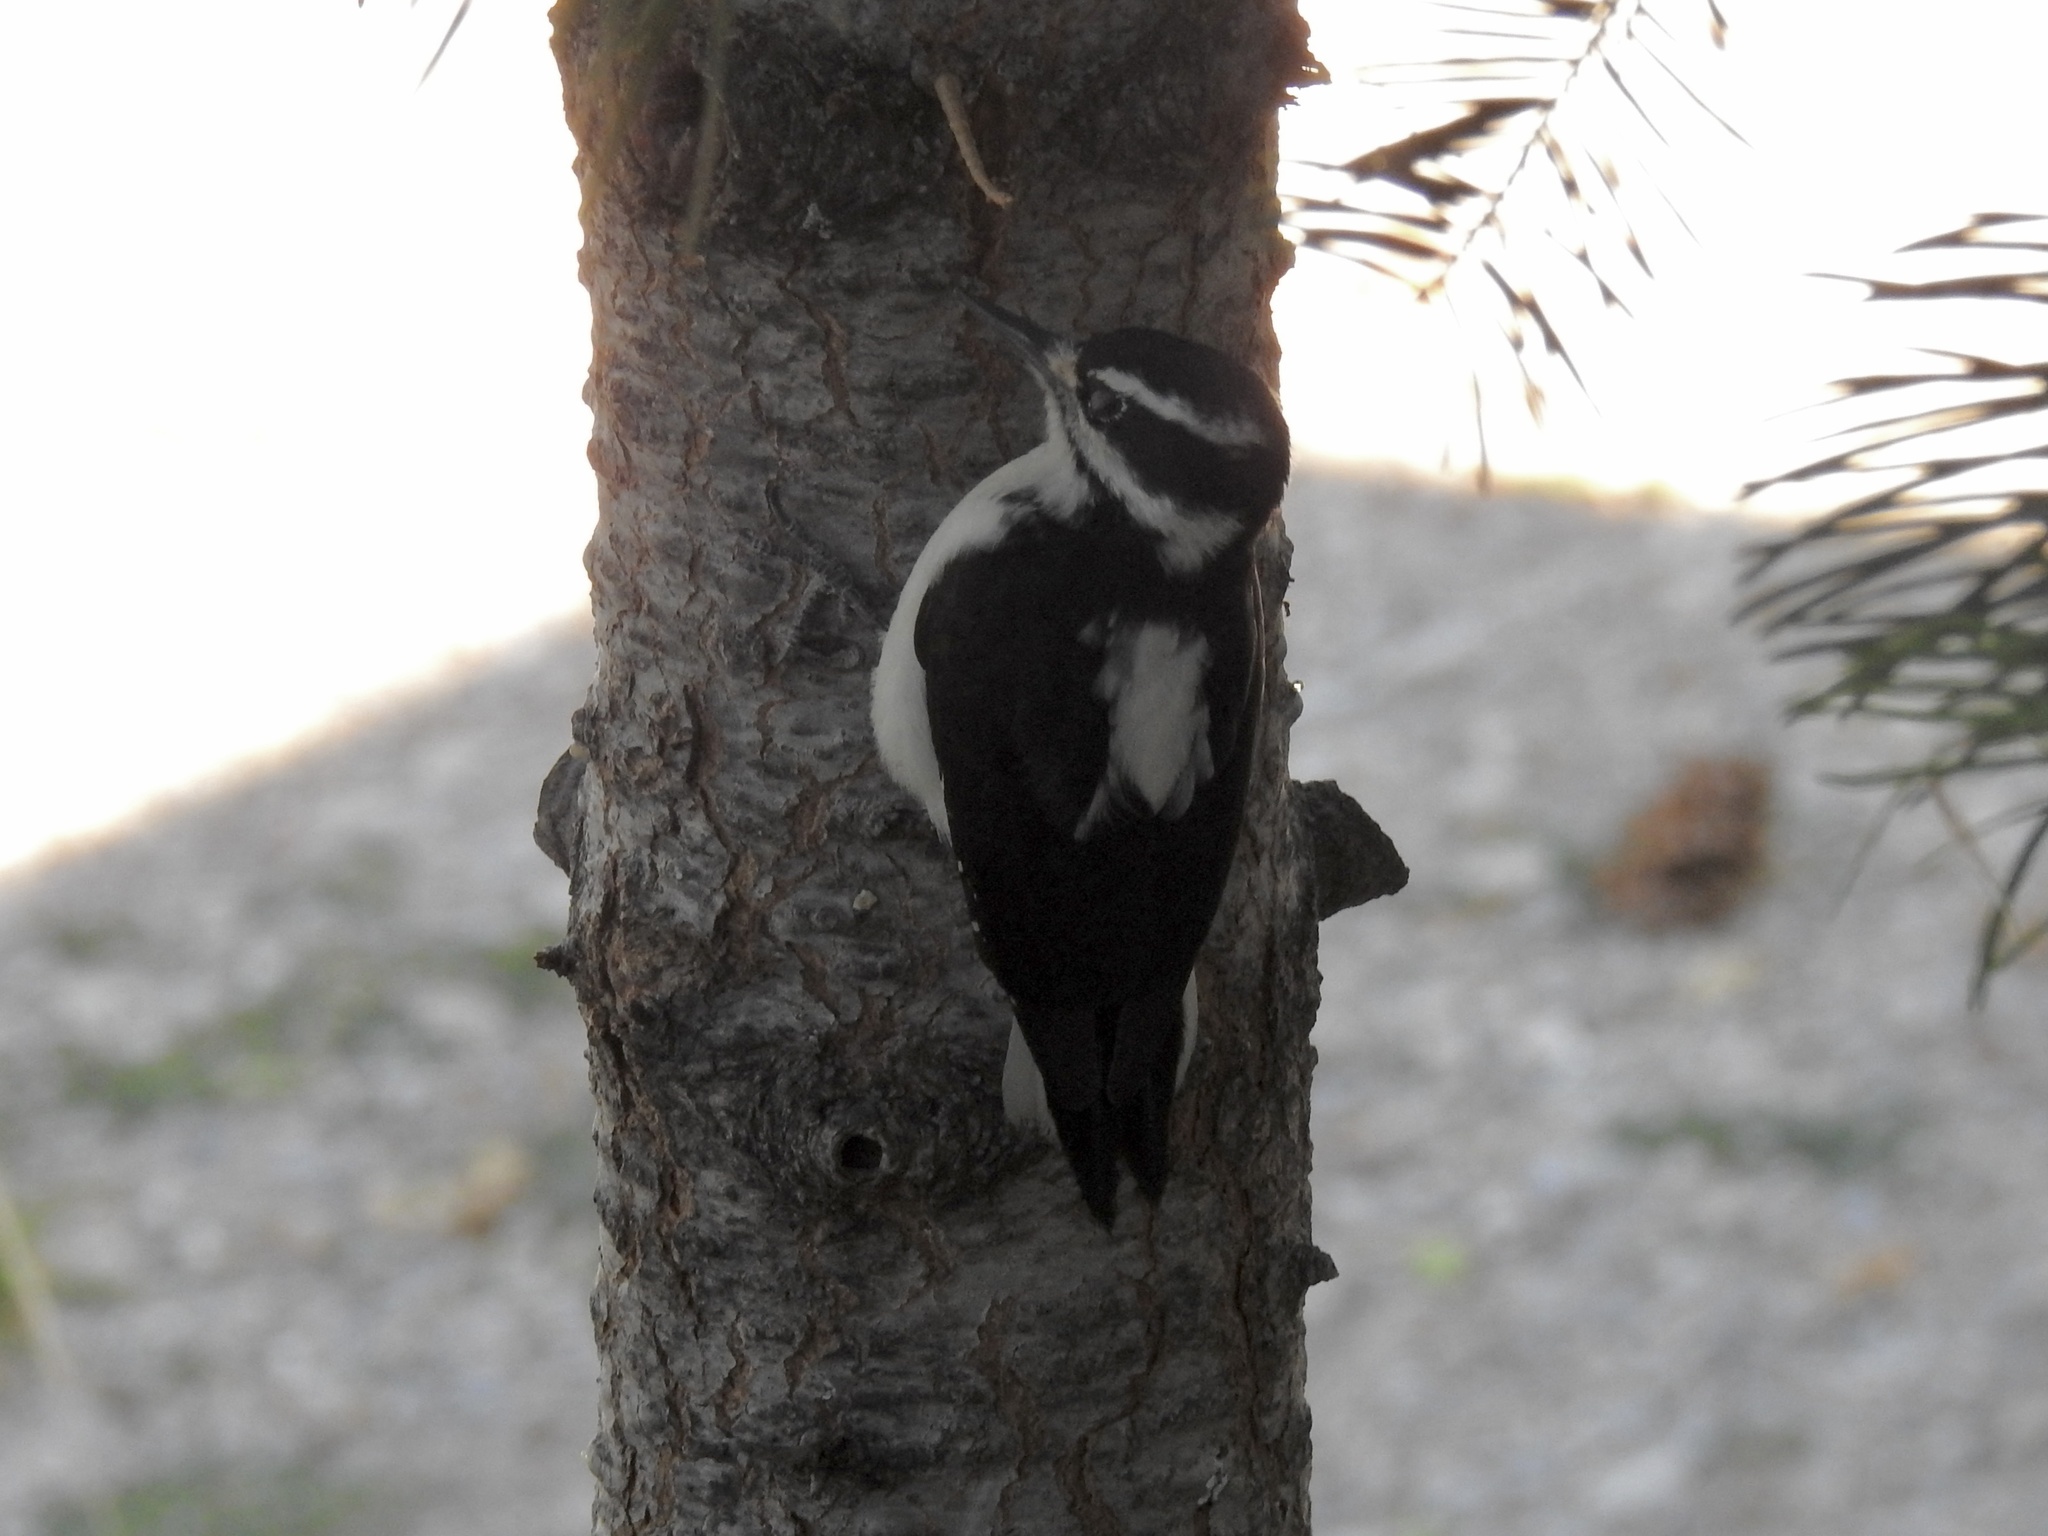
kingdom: Animalia
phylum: Chordata
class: Aves
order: Piciformes
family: Picidae
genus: Leuconotopicus
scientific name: Leuconotopicus villosus
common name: Hairy woodpecker
